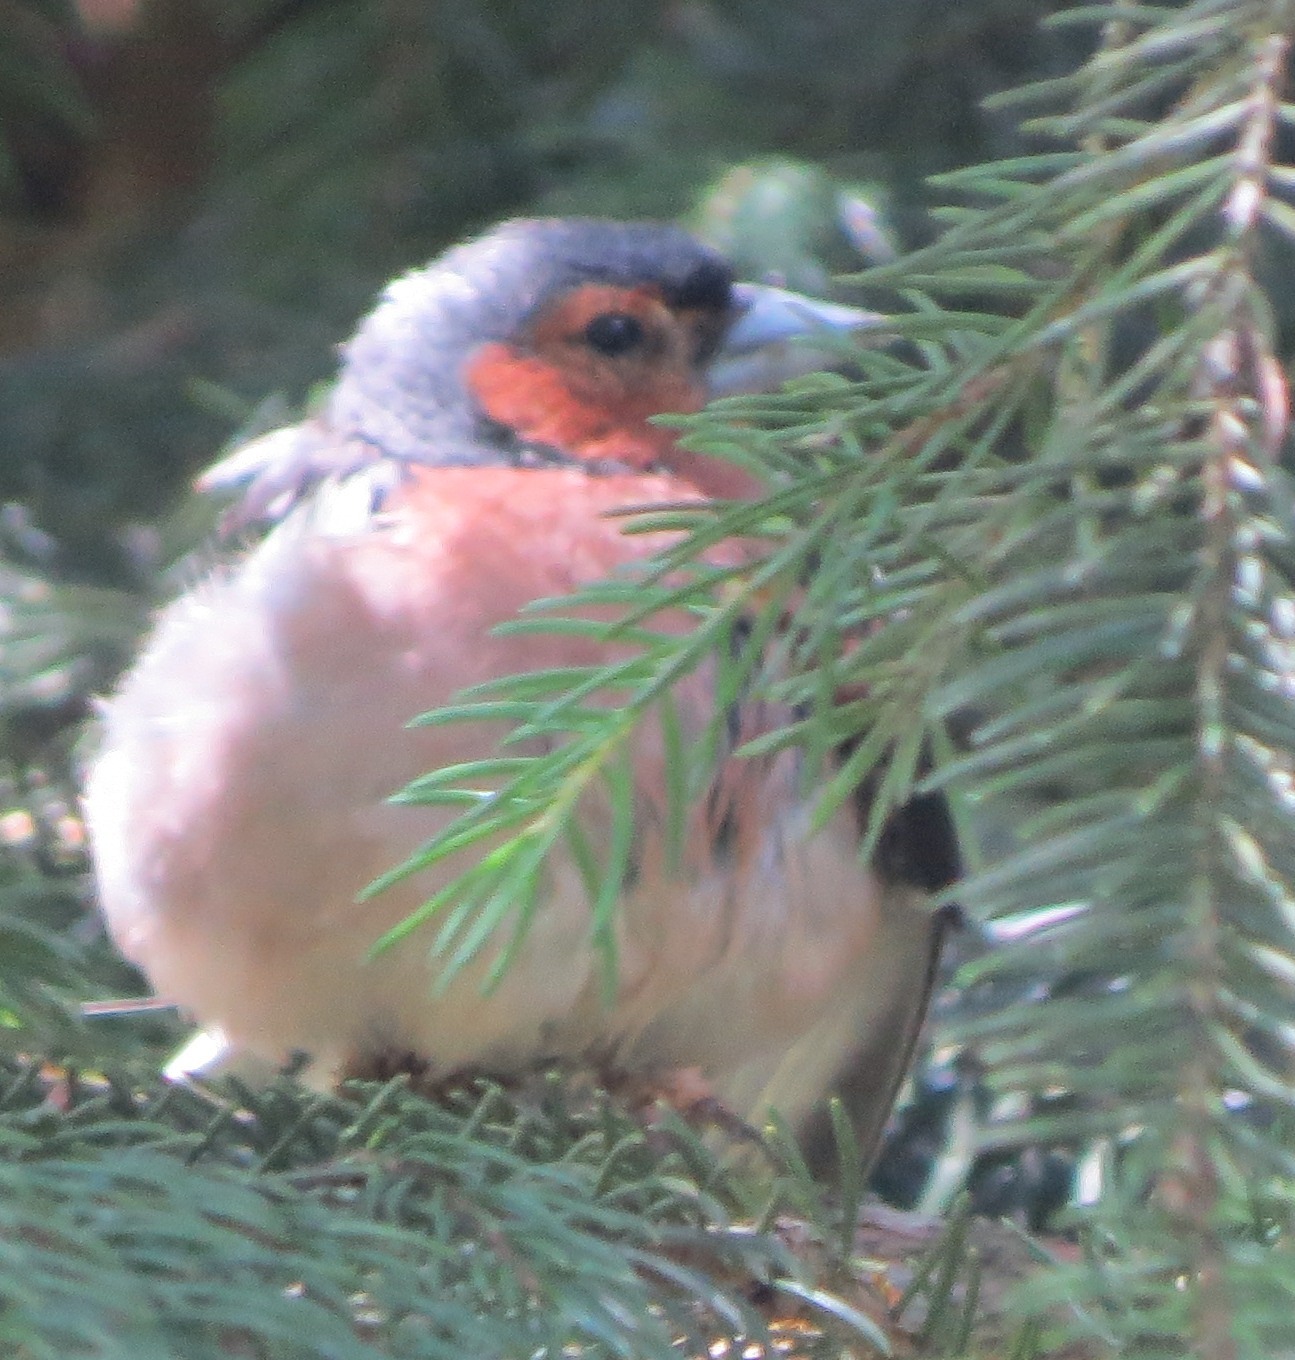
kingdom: Animalia
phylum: Chordata
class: Aves
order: Passeriformes
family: Fringillidae
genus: Fringilla
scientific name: Fringilla coelebs
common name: Common chaffinch
